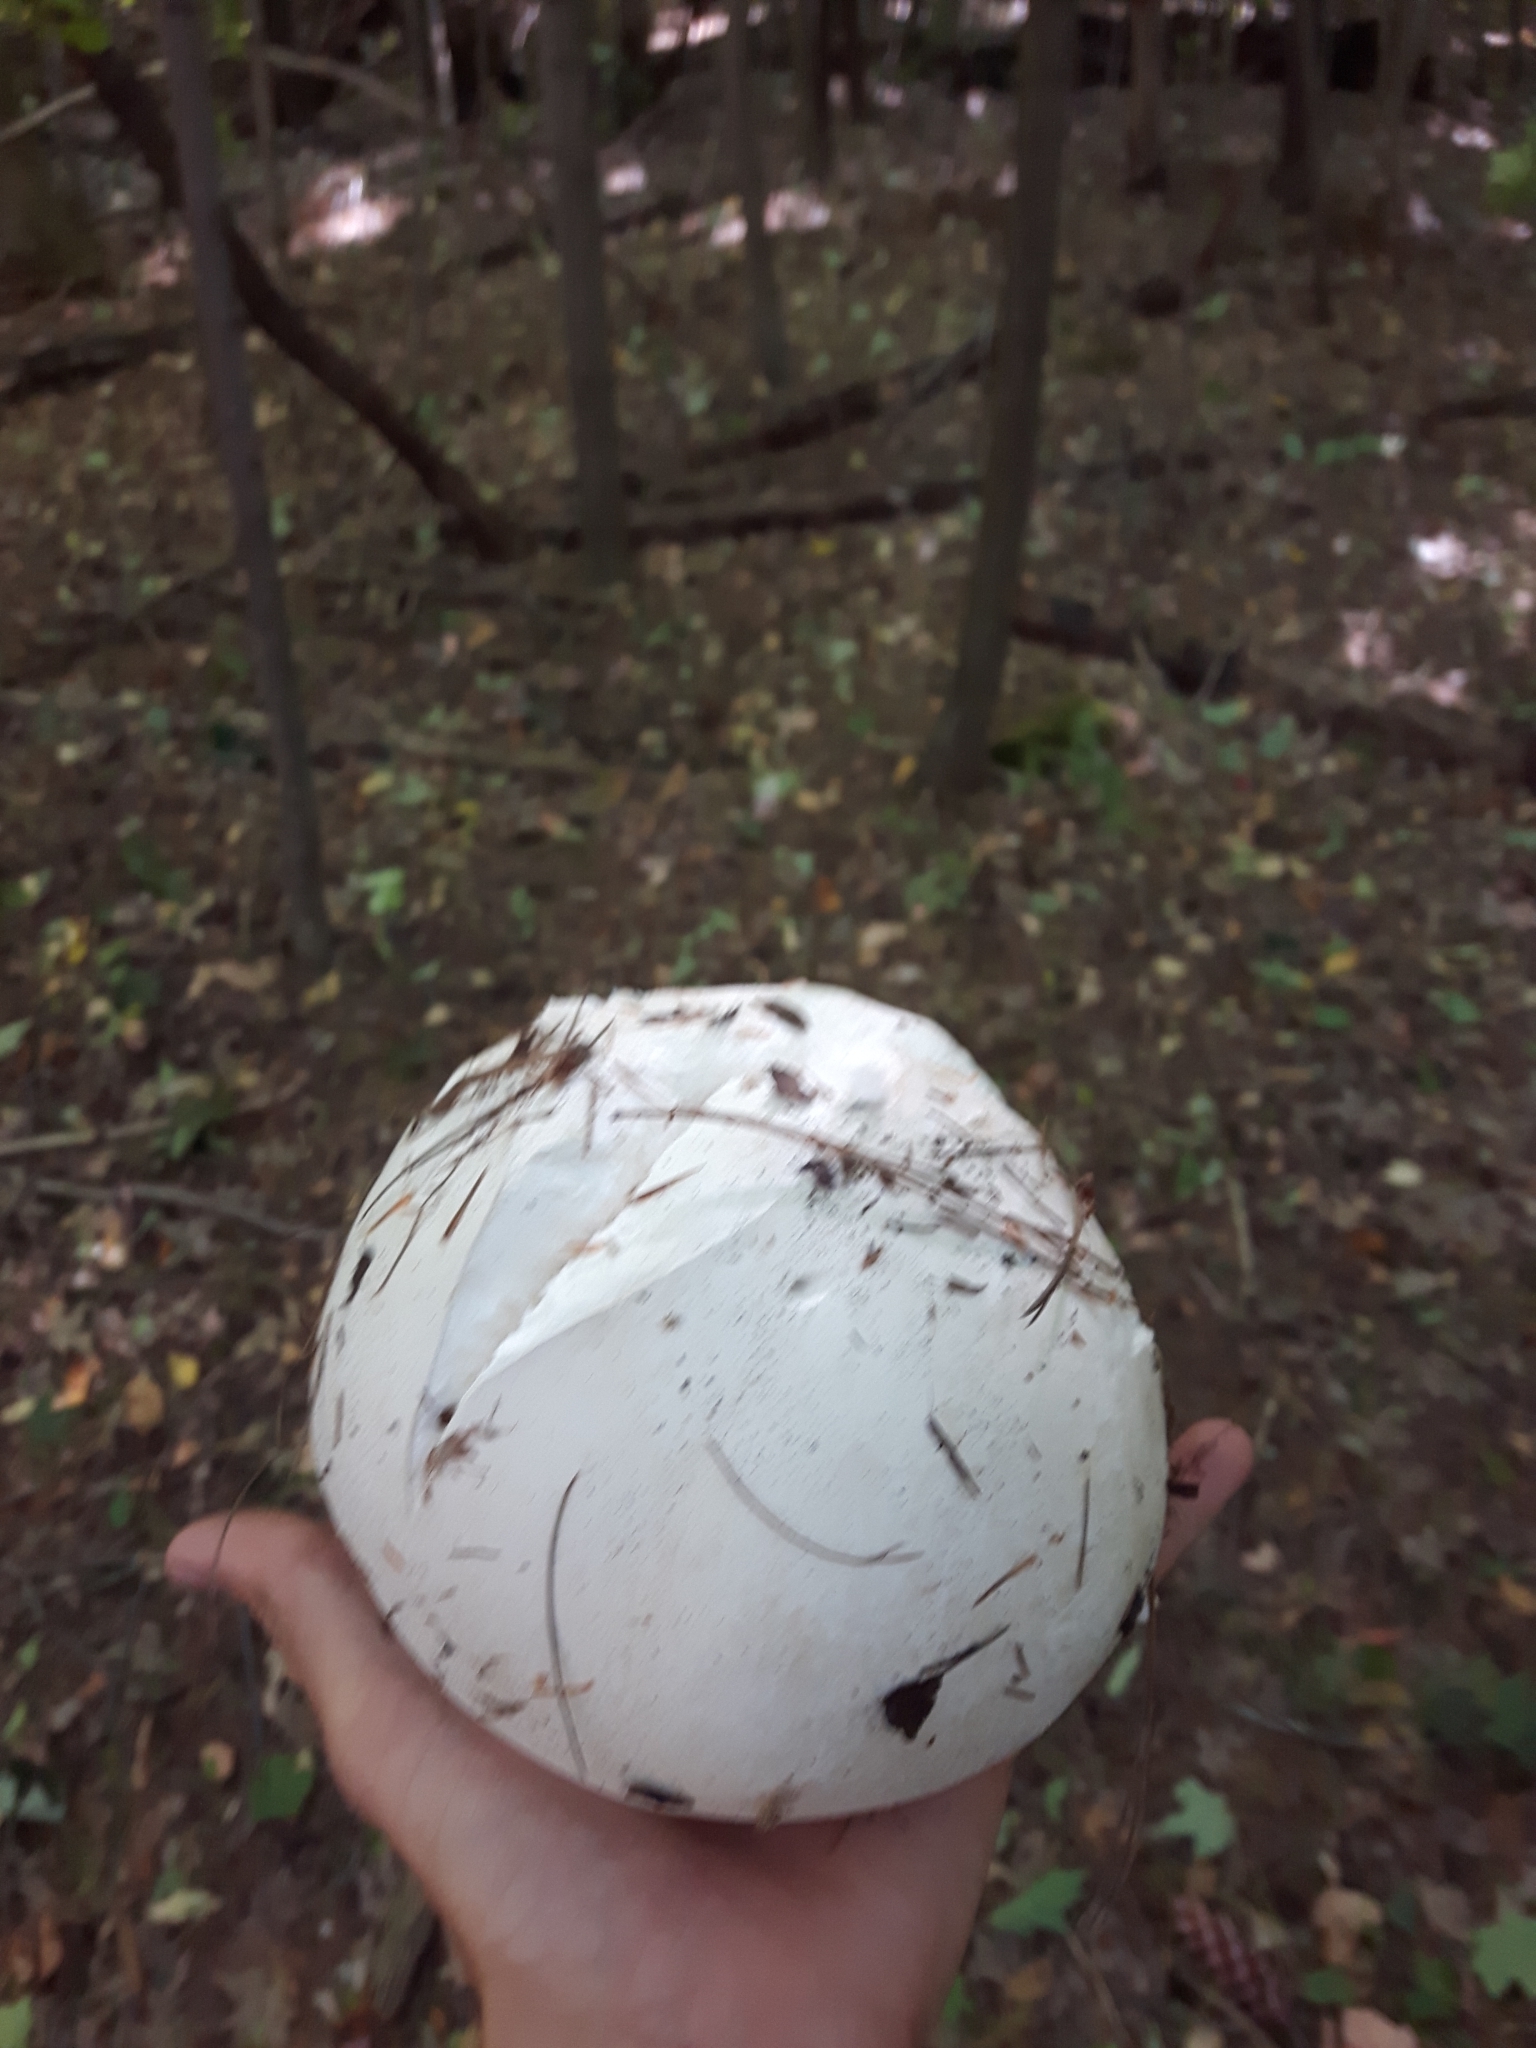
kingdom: Fungi
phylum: Basidiomycota
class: Agaricomycetes
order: Agaricales
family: Lycoperdaceae
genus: Calvatia
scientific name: Calvatia gigantea
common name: Giant puffball
